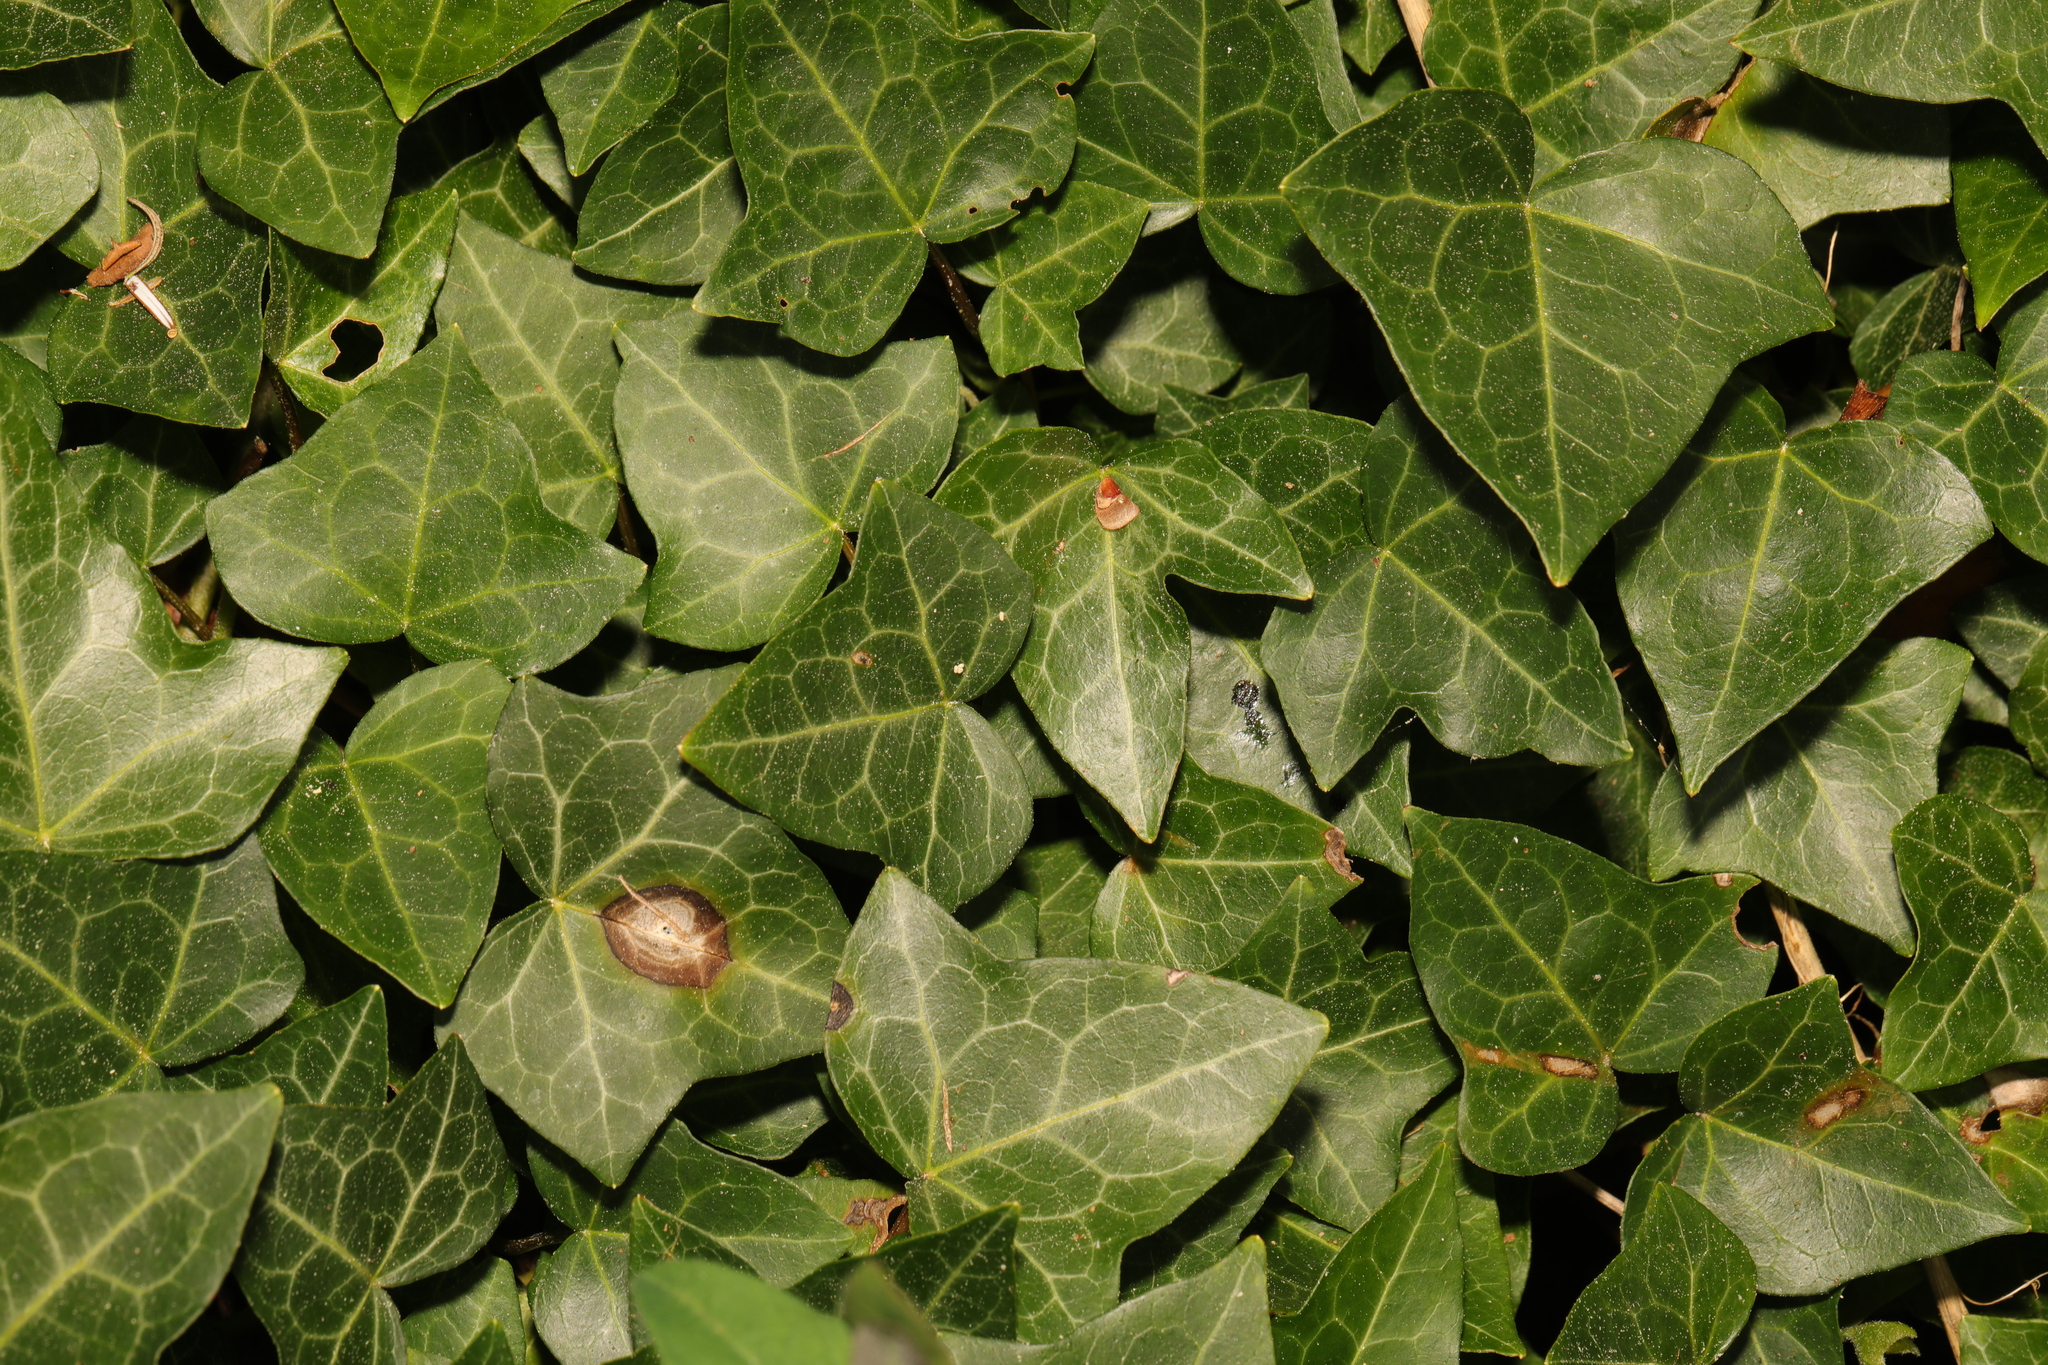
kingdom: Plantae
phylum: Tracheophyta
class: Magnoliopsida
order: Apiales
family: Araliaceae
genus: Hedera
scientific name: Hedera helix
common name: Ivy
